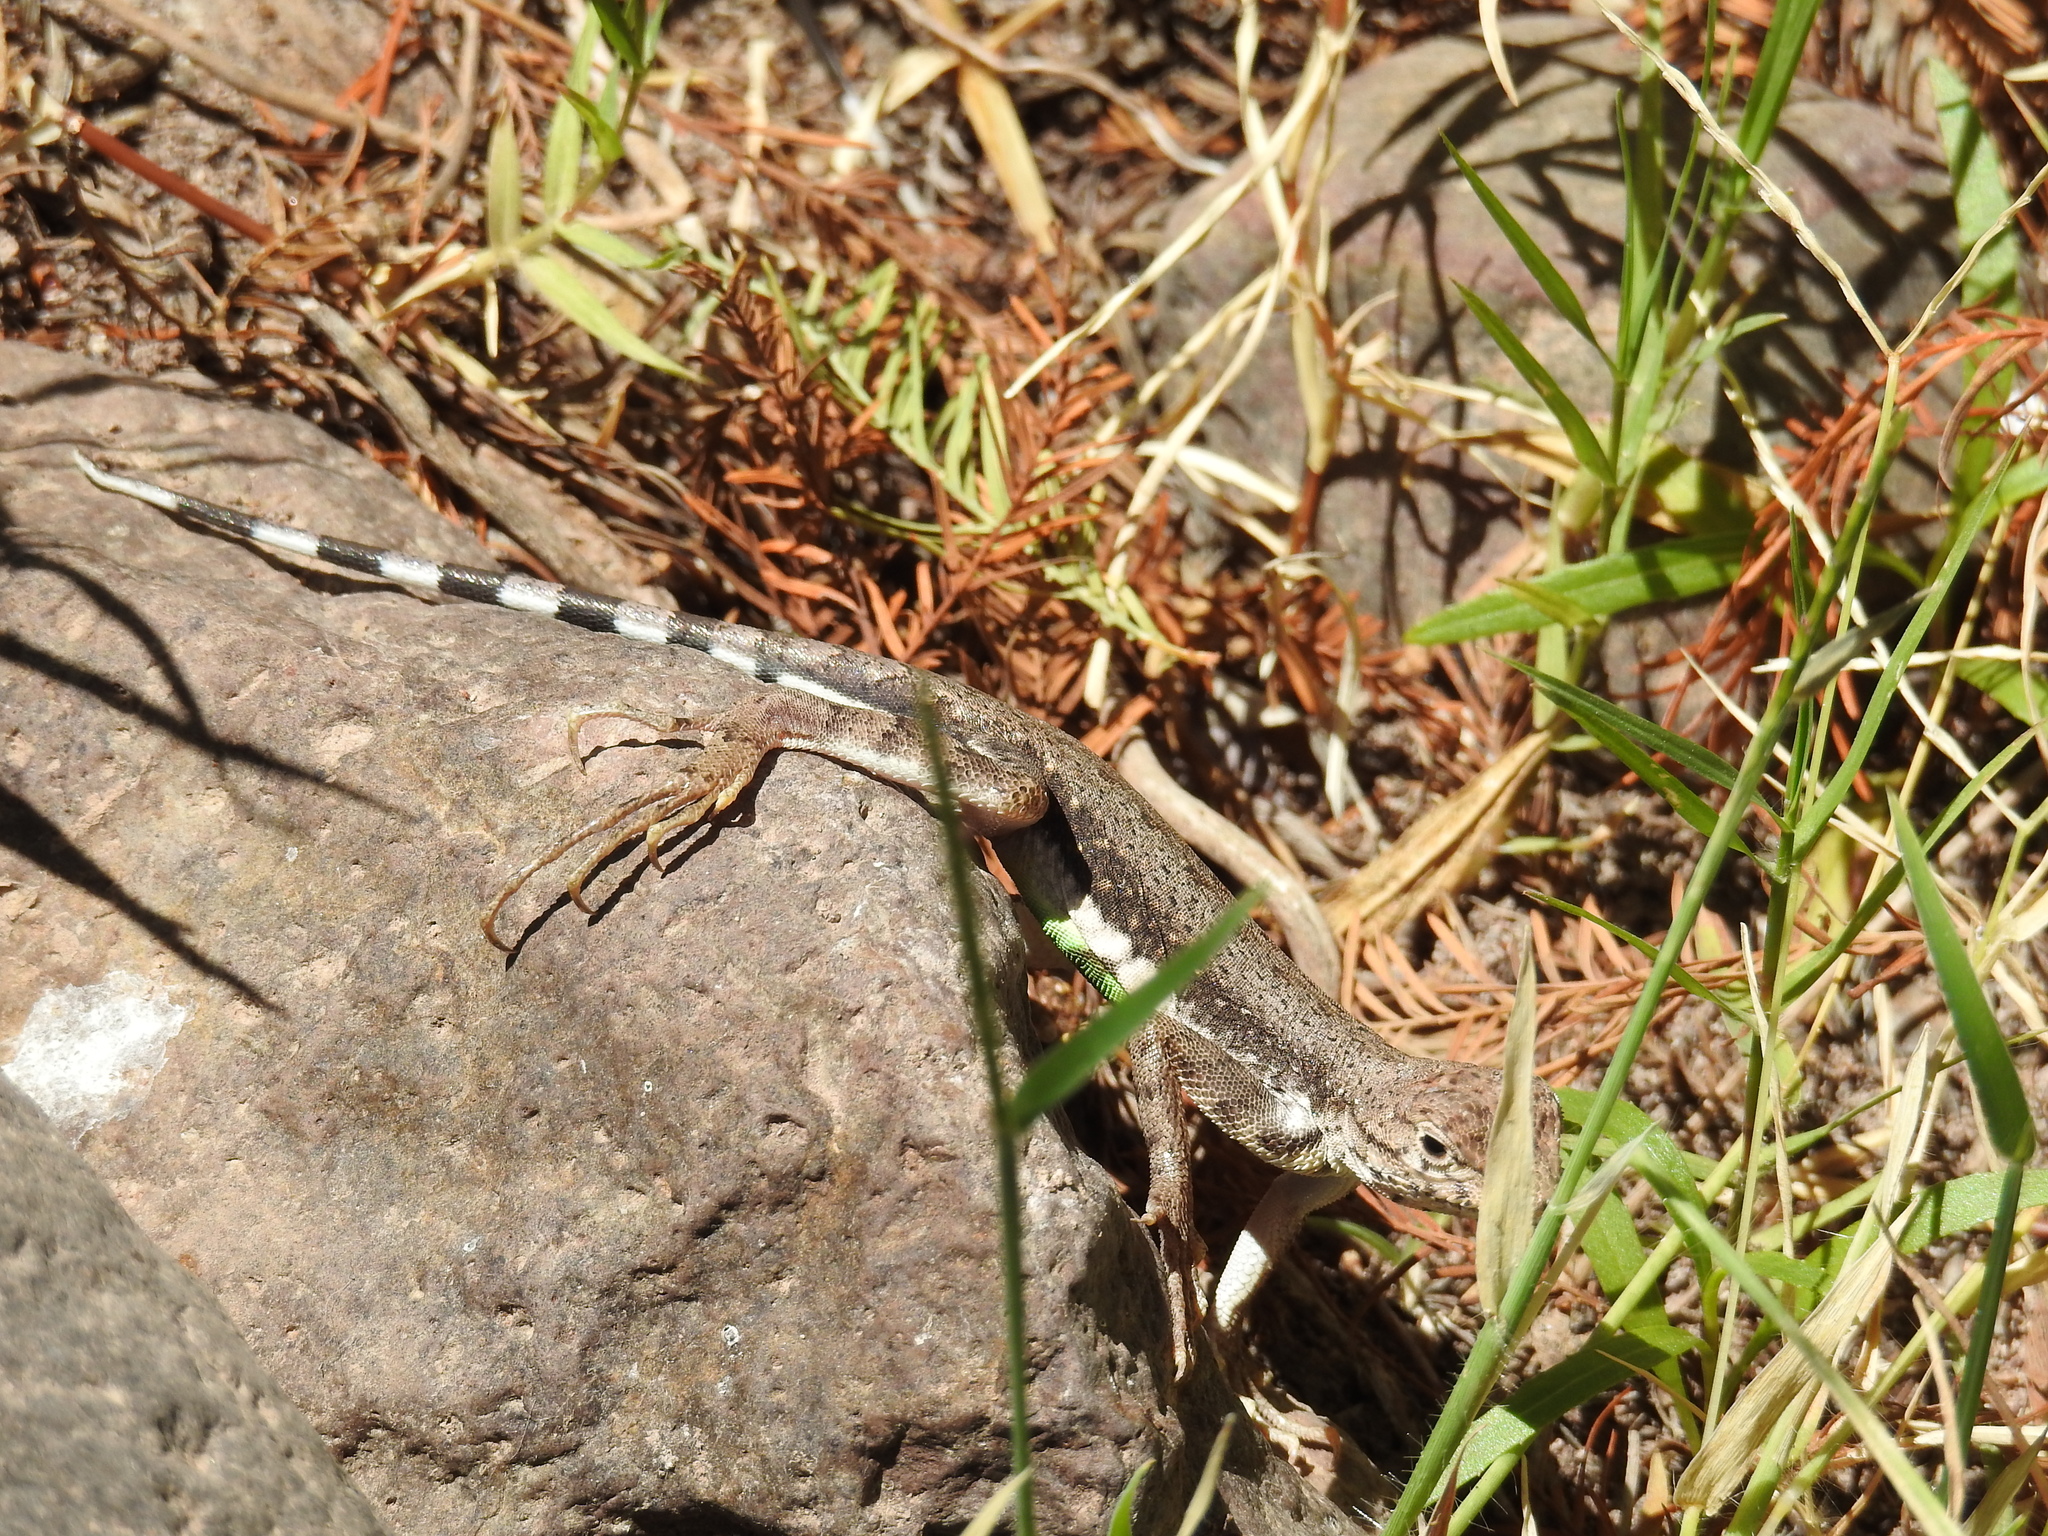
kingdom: Animalia
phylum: Chordata
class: Squamata
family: Phrynosomatidae
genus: Callisaurus
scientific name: Callisaurus draconoides
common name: Zebra-tailed lizard
